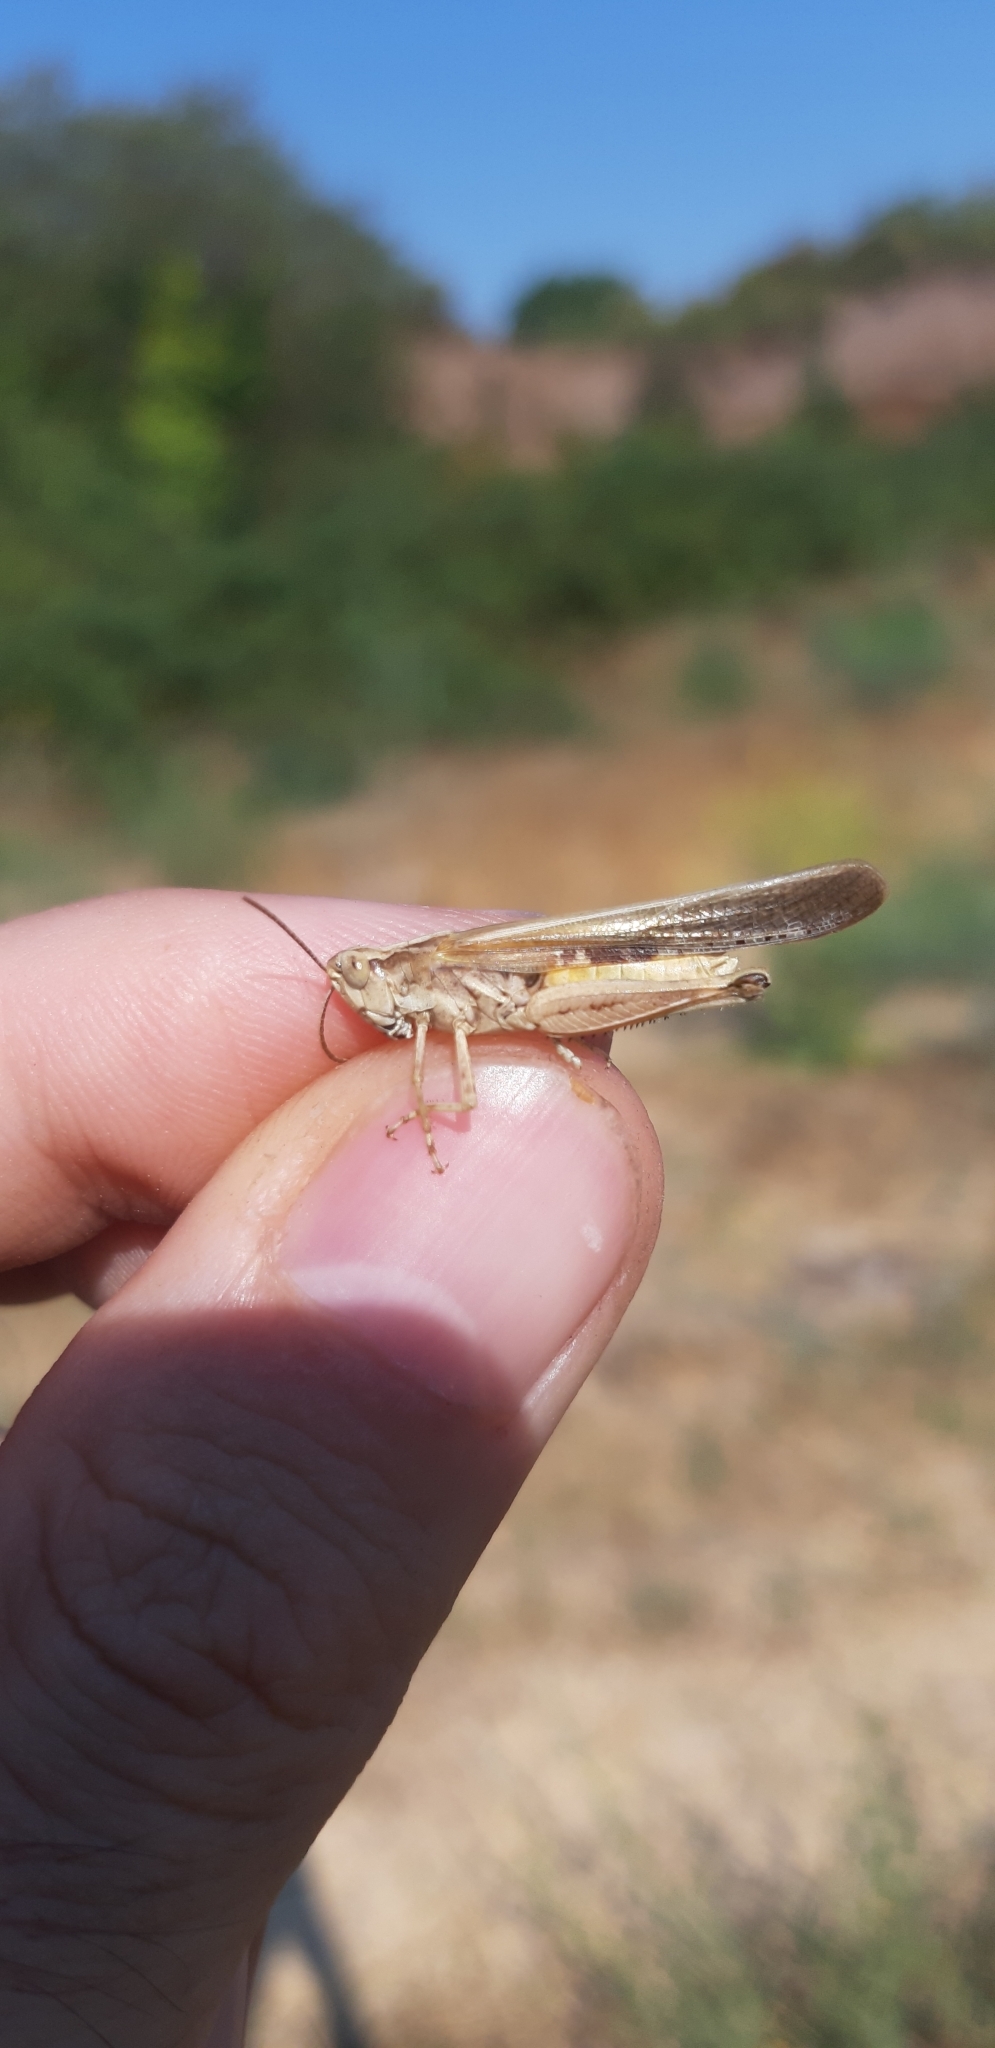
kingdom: Animalia
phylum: Arthropoda
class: Insecta
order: Orthoptera
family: Acrididae
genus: Aiolopus
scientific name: Aiolopus puissanti
